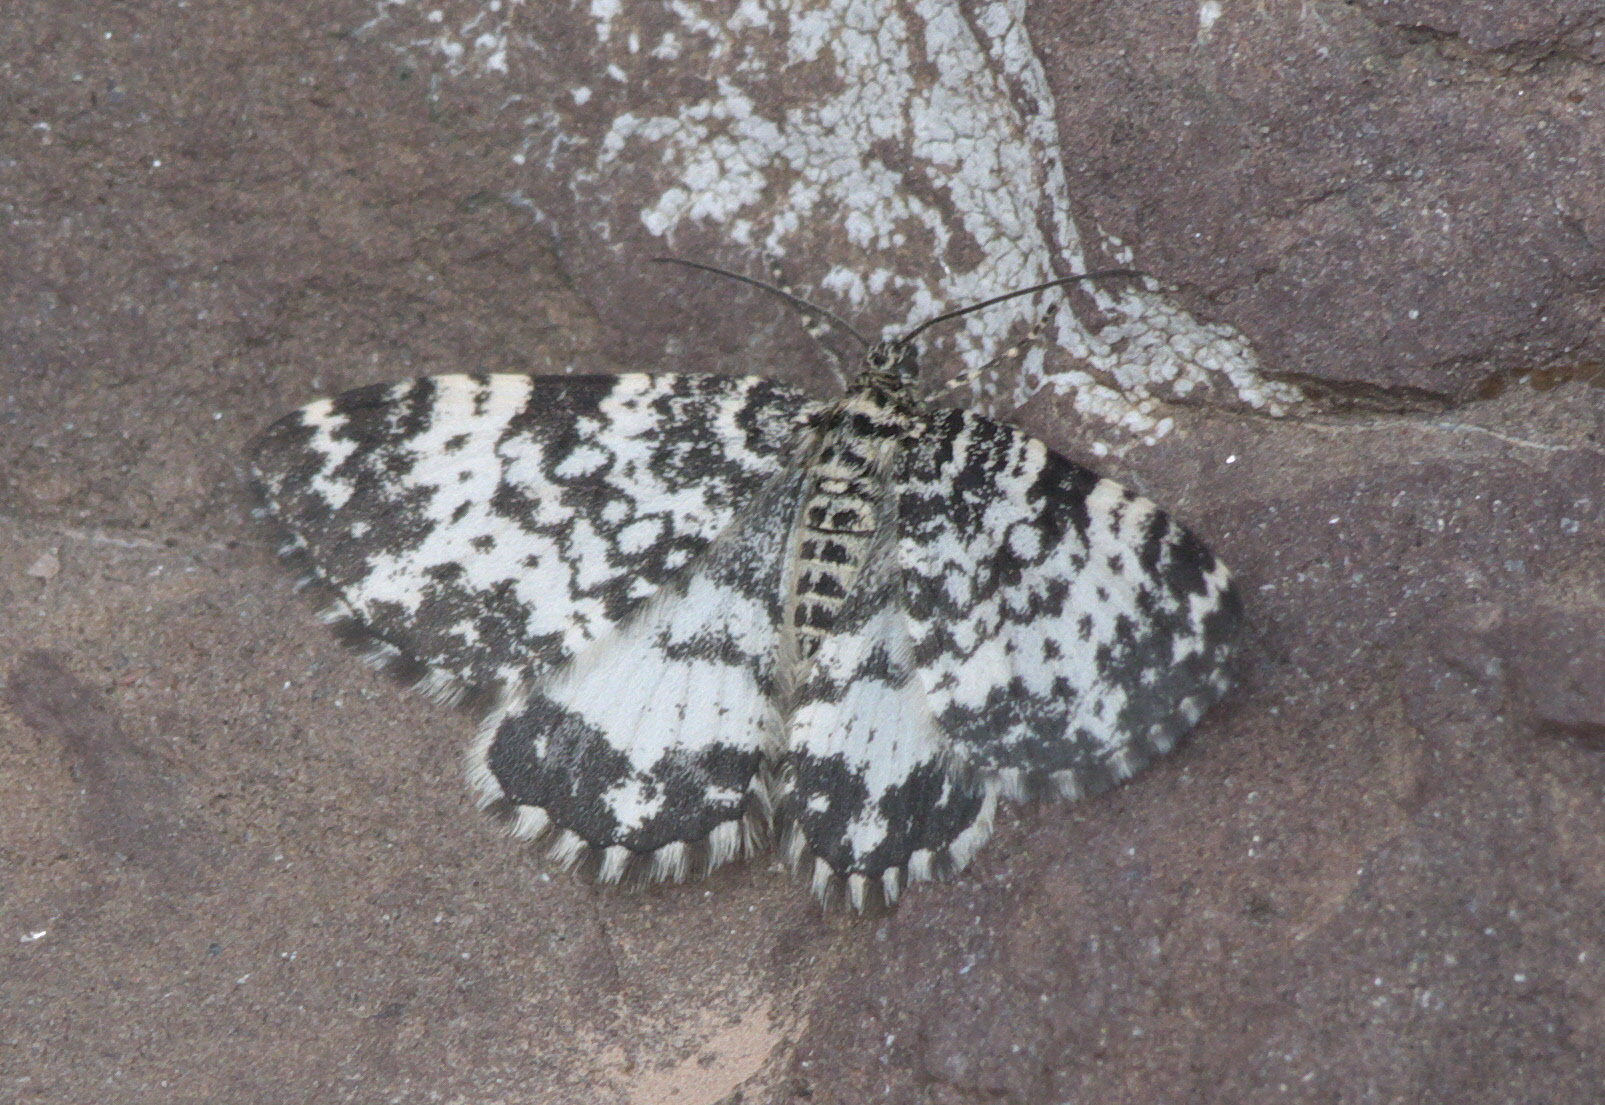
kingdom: Animalia
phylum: Arthropoda
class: Insecta
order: Lepidoptera
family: Geometridae
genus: Rheumaptera
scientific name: Rheumaptera
